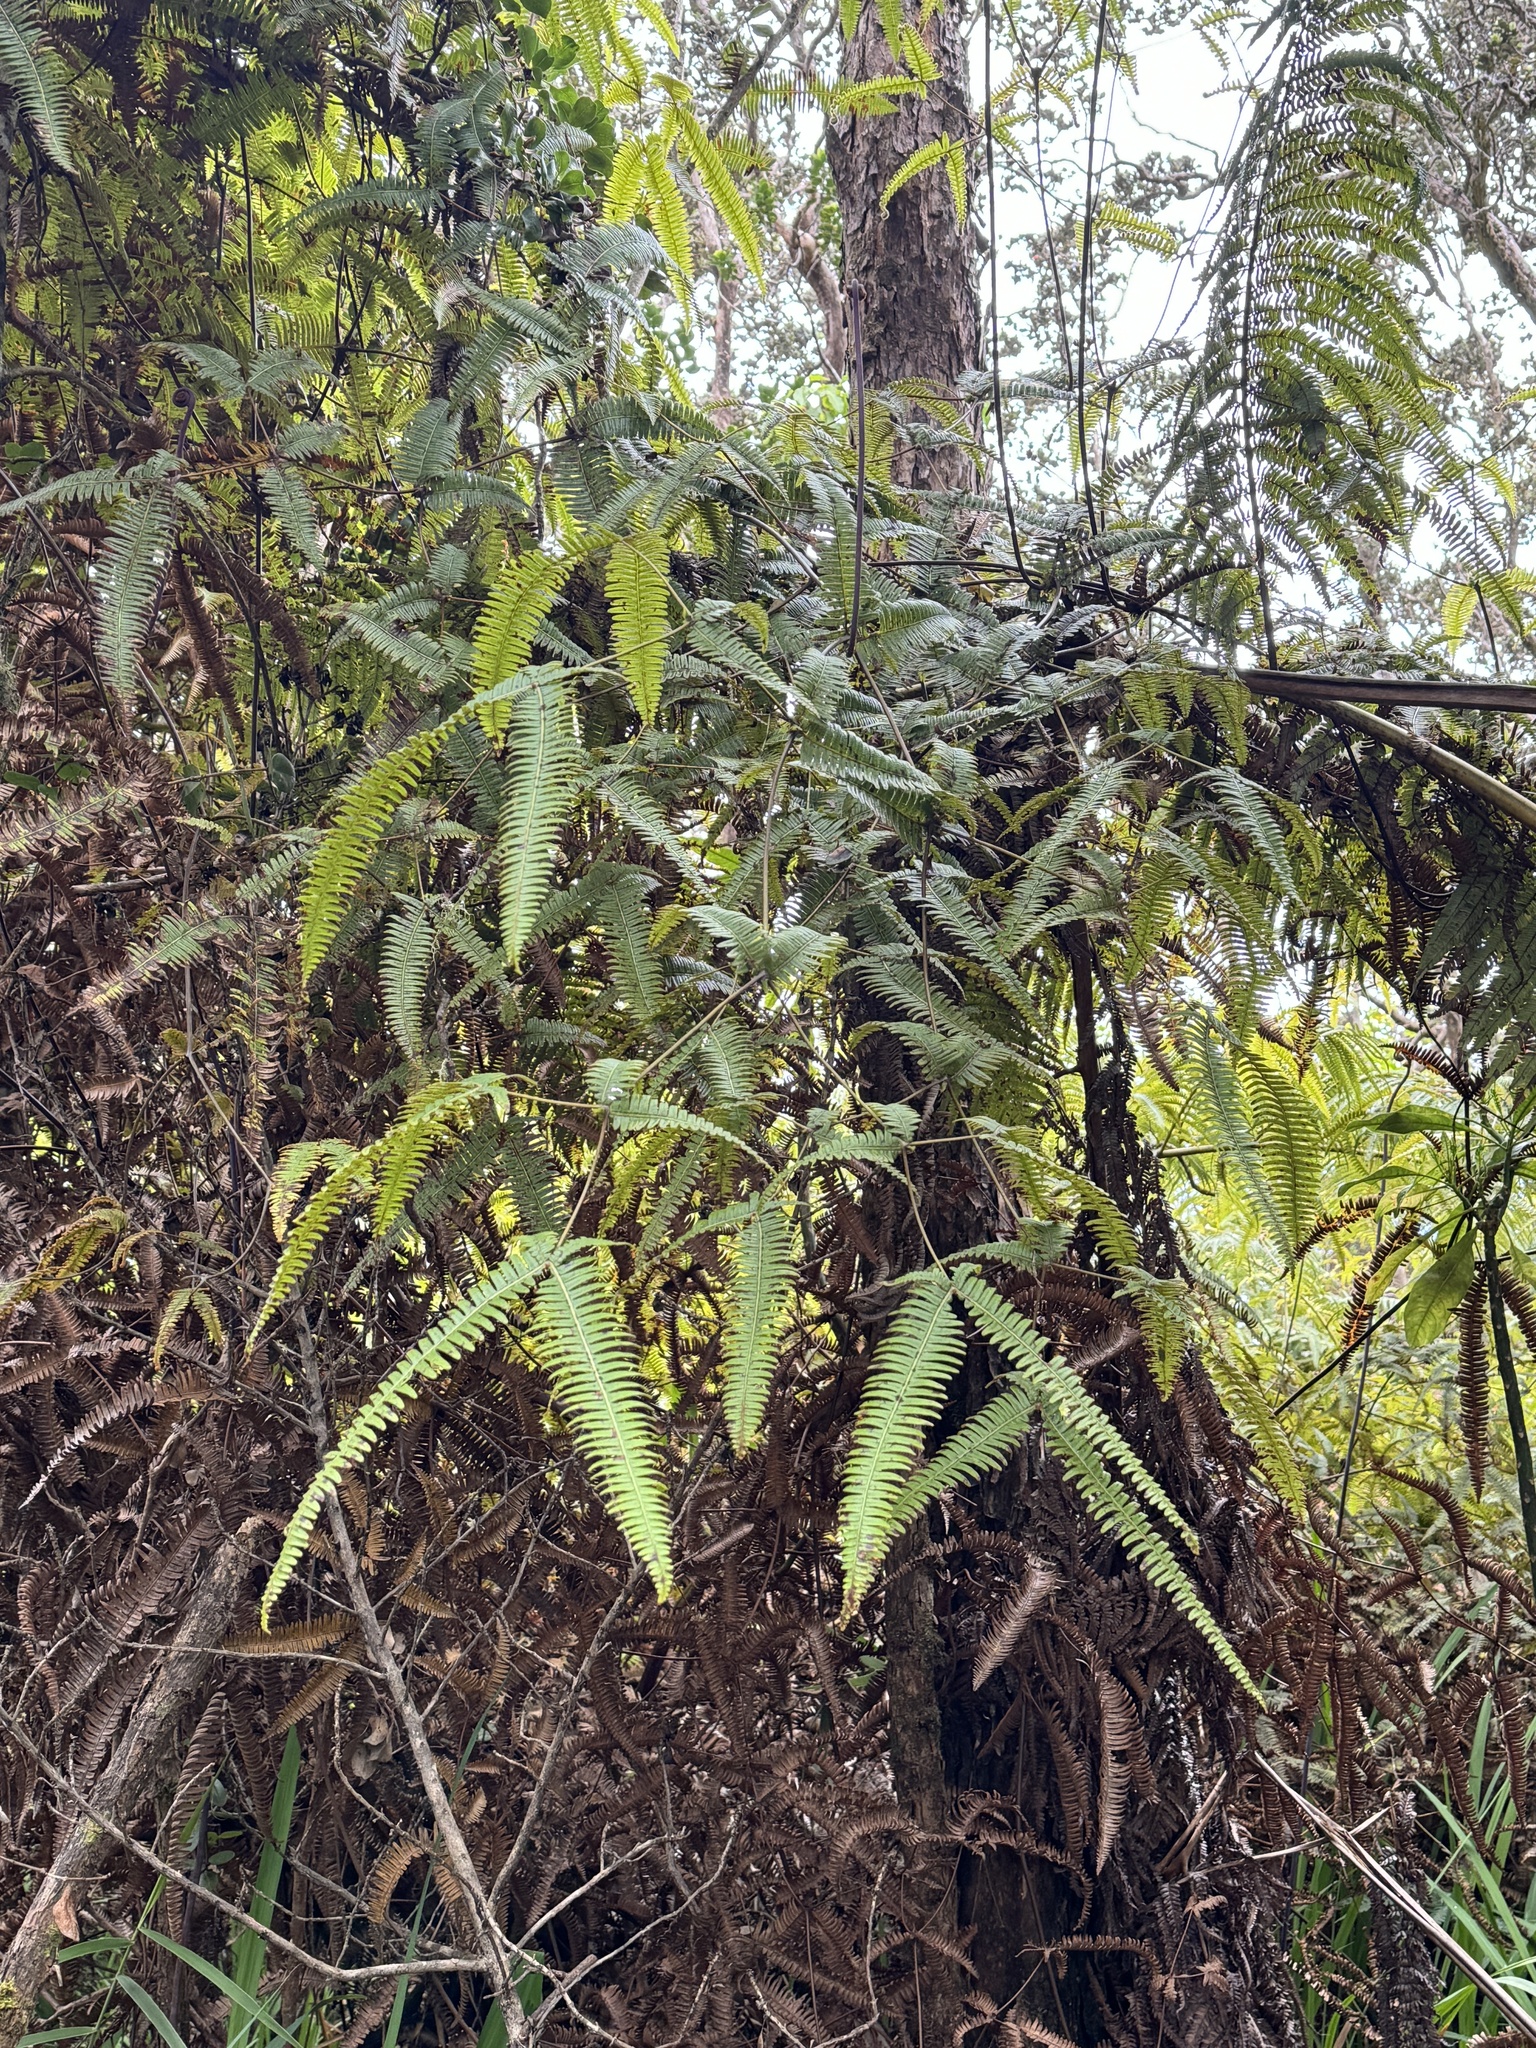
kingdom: Plantae
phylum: Tracheophyta
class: Polypodiopsida
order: Gleicheniales
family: Gleicheniaceae
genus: Dicranopteris
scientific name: Dicranopteris linearis
